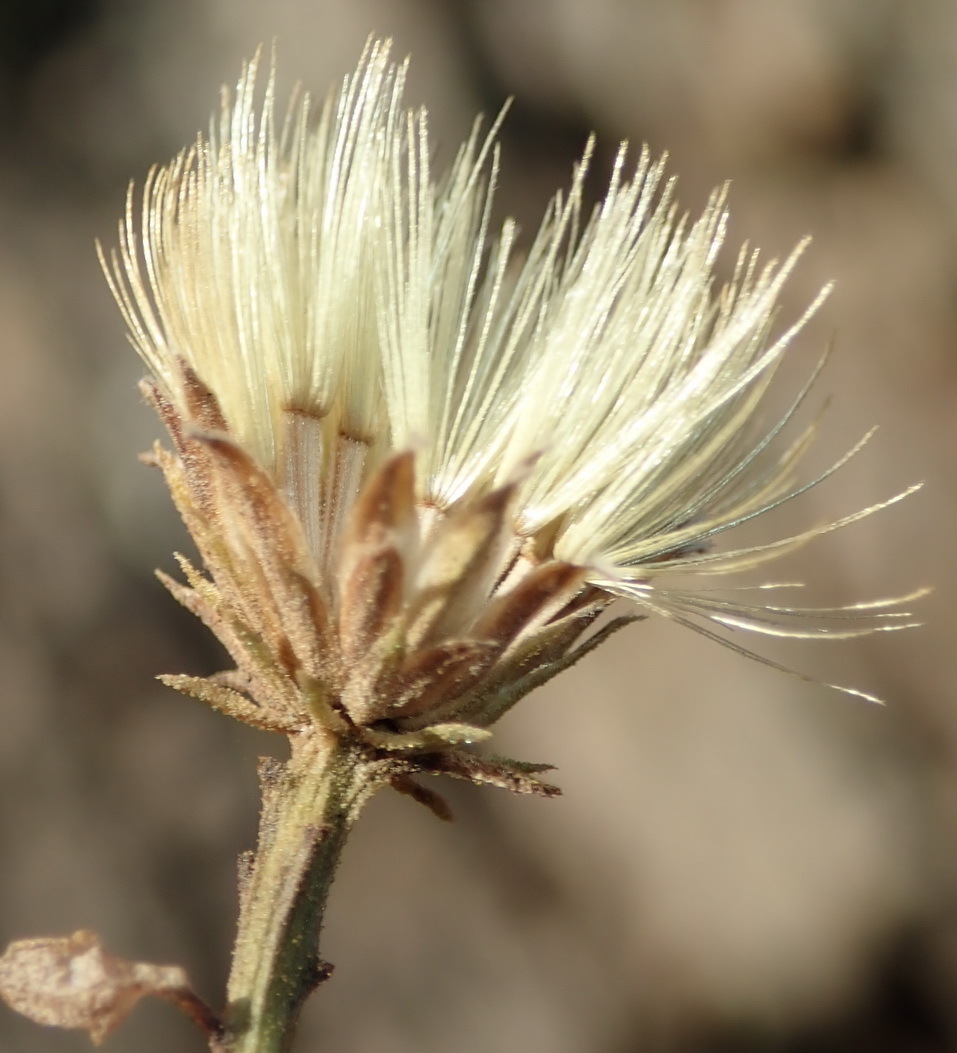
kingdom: Plantae
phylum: Tracheophyta
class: Magnoliopsida
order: Asterales
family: Asteraceae
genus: Pegolettia
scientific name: Pegolettia baccaridifolia
